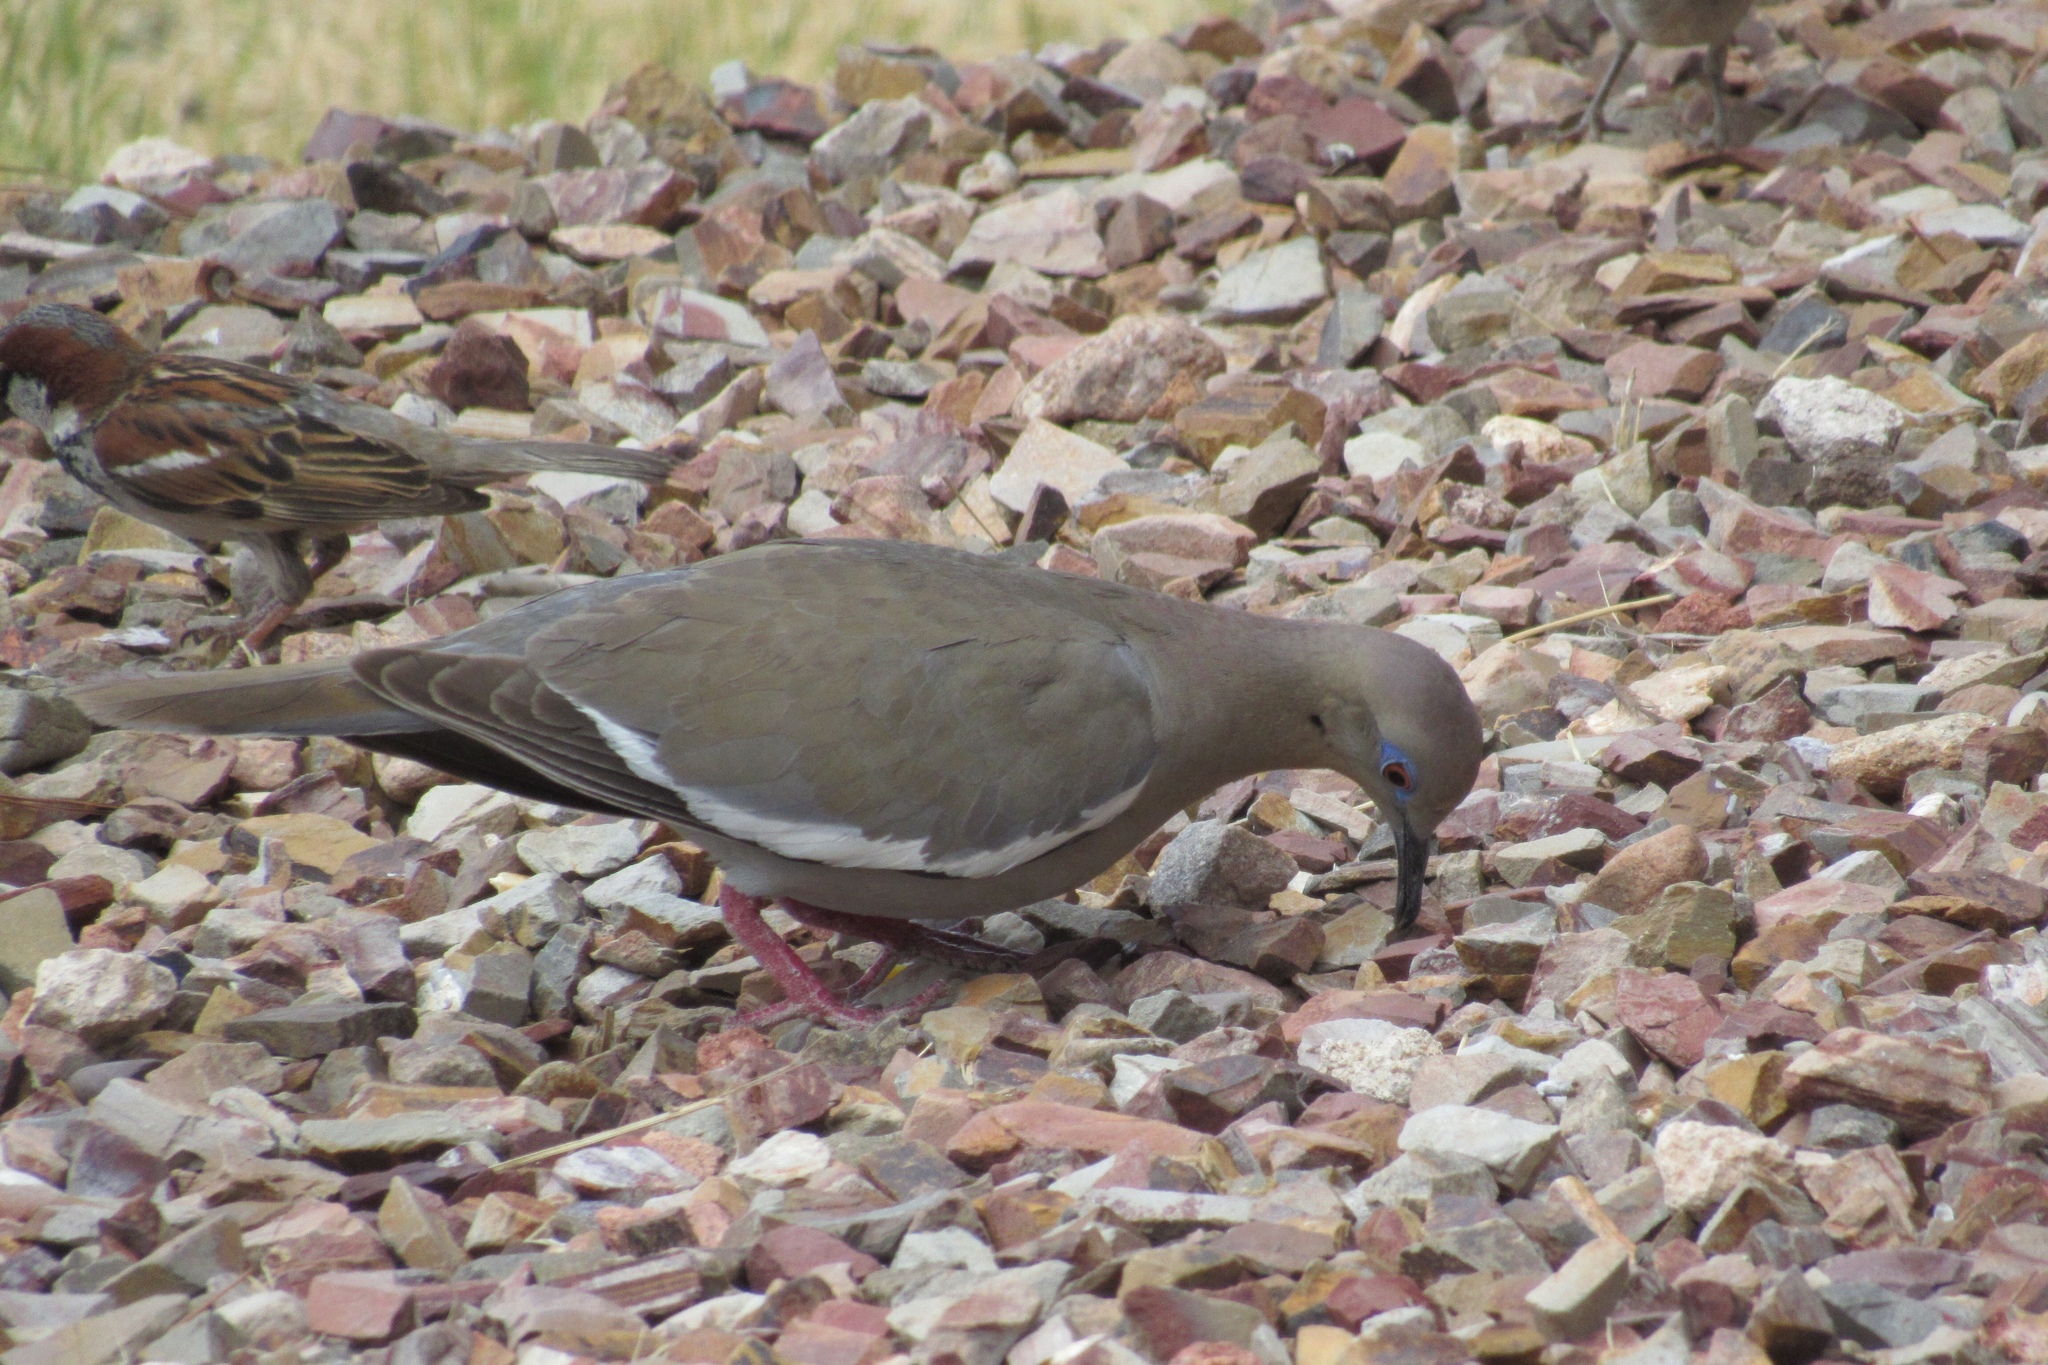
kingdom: Animalia
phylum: Chordata
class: Aves
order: Columbiformes
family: Columbidae
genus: Zenaida
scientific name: Zenaida asiatica
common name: White-winged dove
